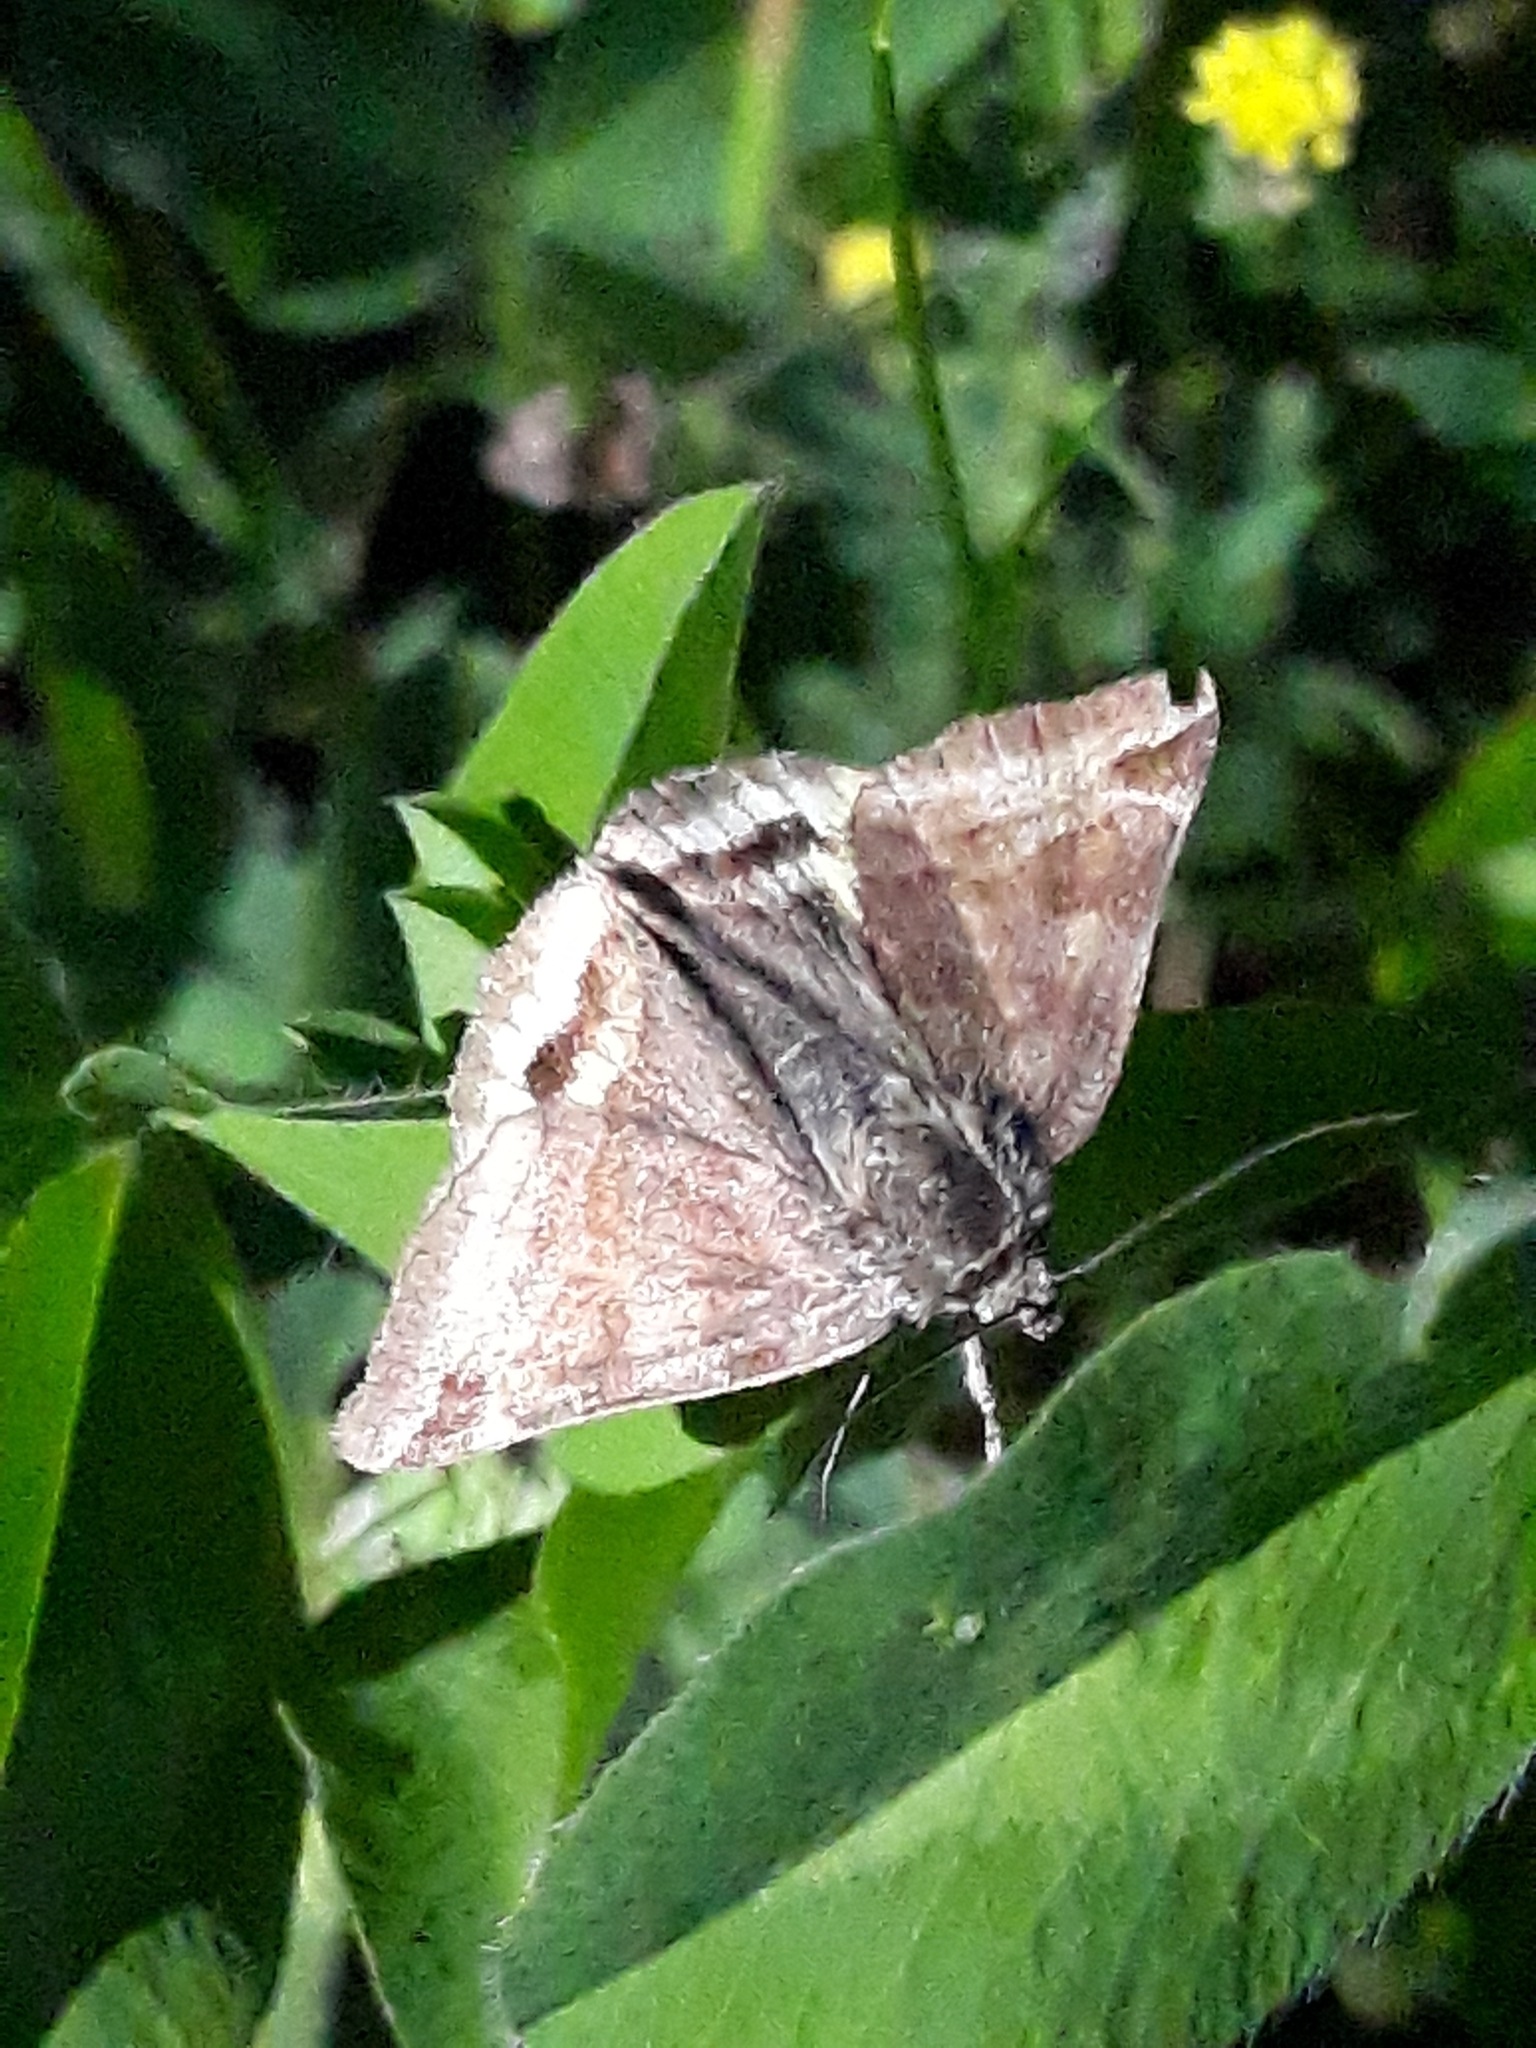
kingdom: Animalia
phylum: Arthropoda
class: Insecta
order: Lepidoptera
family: Erebidae
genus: Euclidia
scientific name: Euclidia glyphica
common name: Burnet companion
